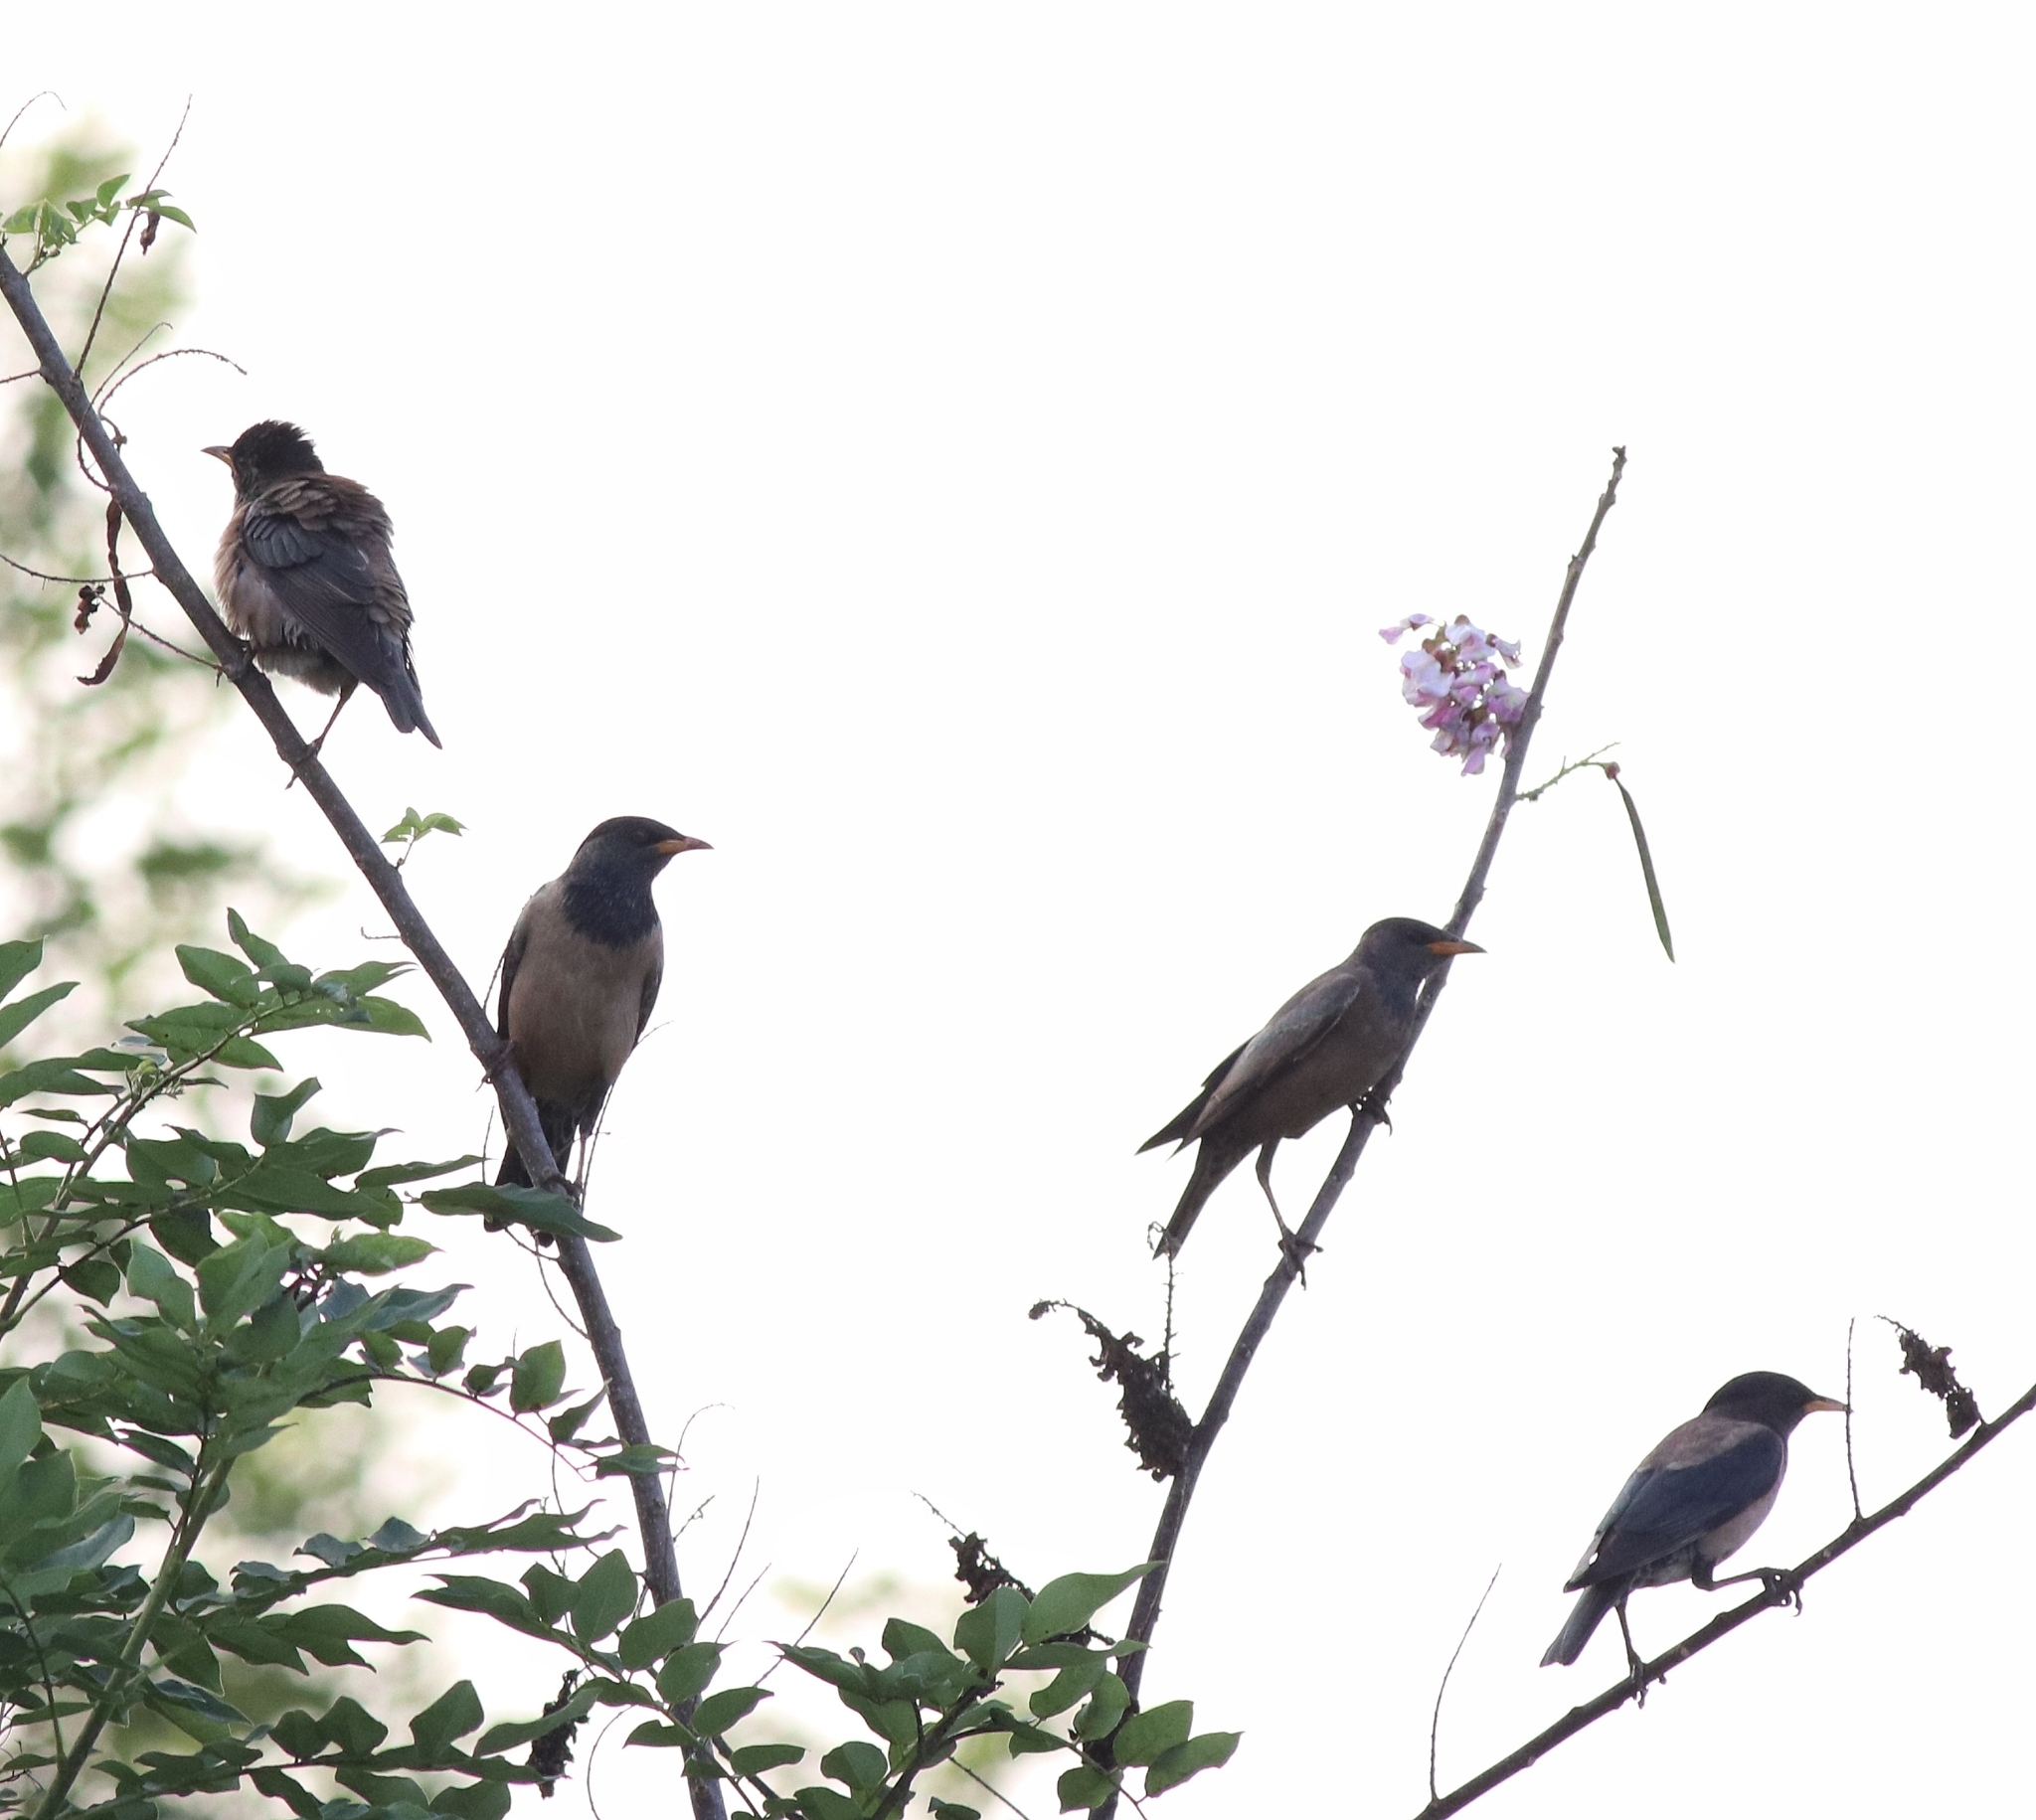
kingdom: Animalia
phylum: Chordata
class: Aves
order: Passeriformes
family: Sturnidae
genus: Pastor
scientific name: Pastor roseus
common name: Rosy starling
